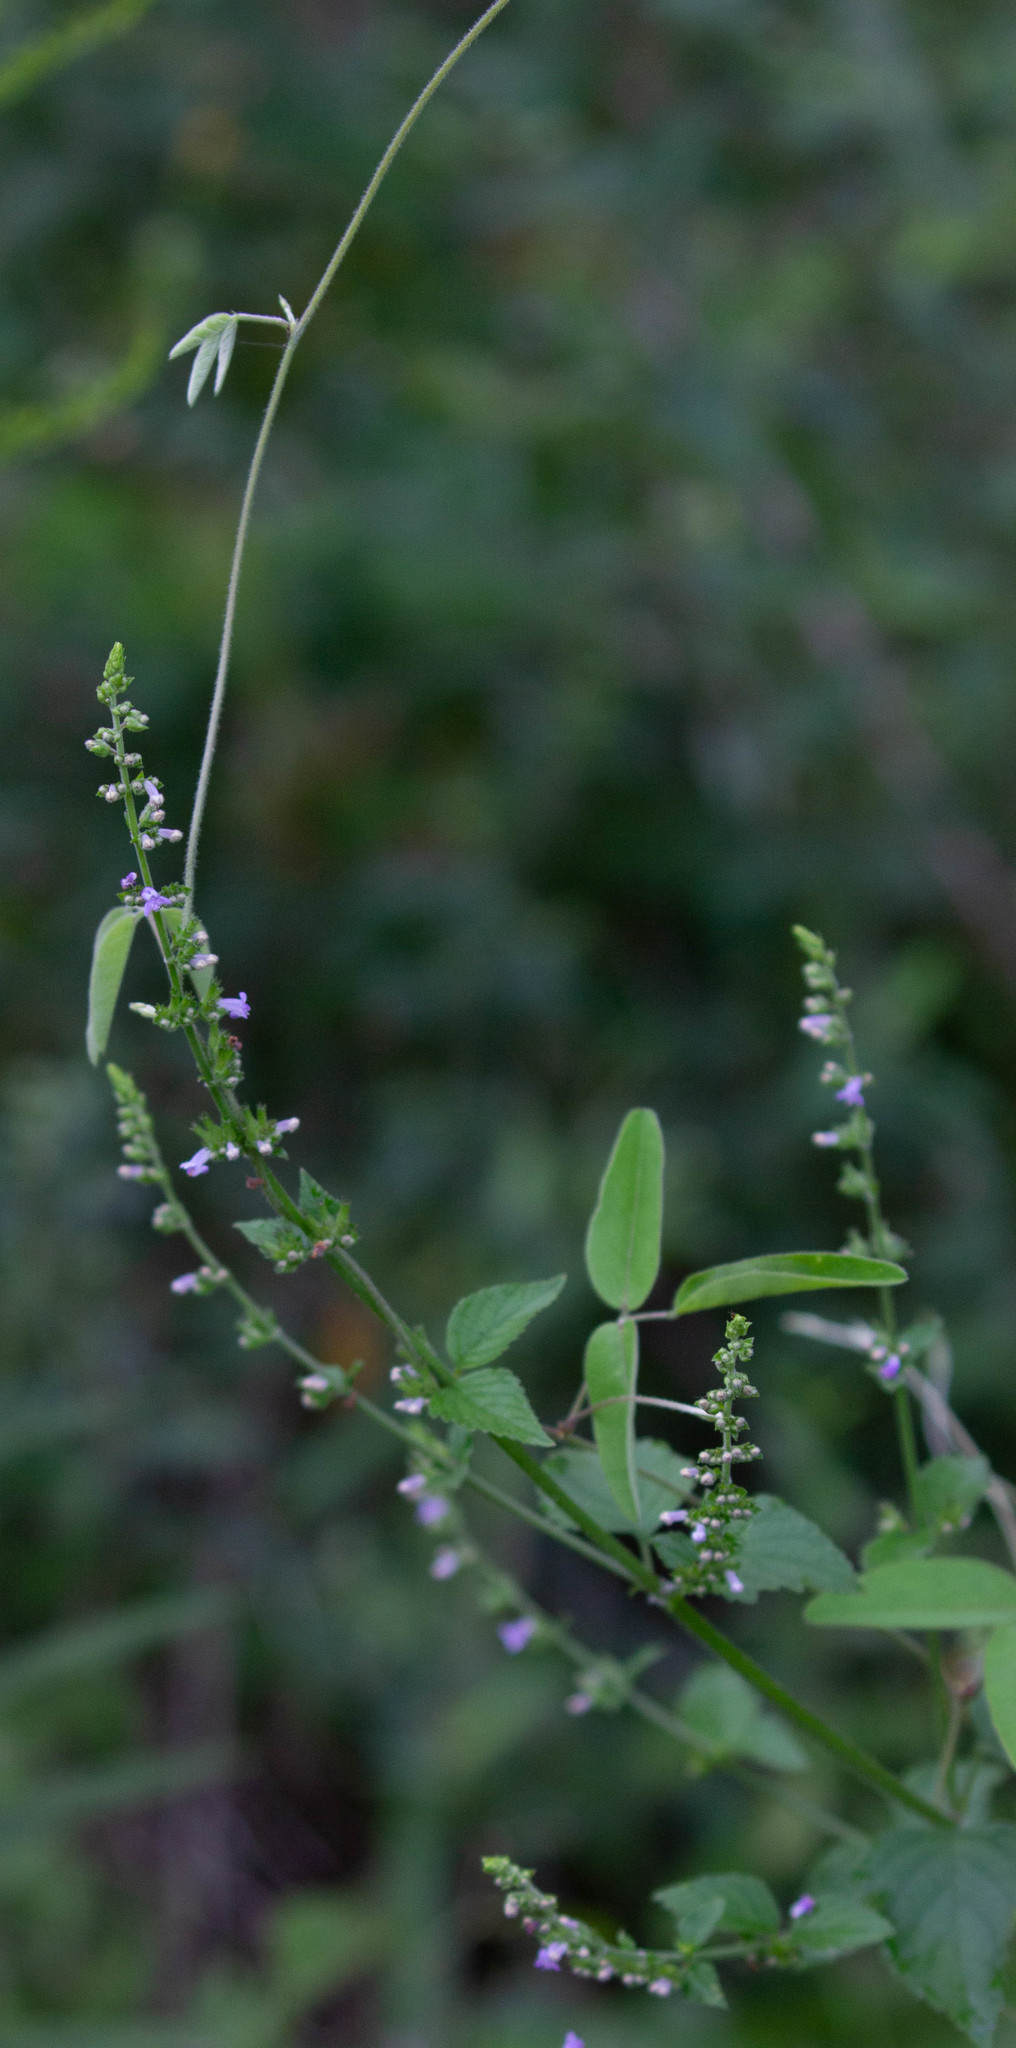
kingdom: Plantae
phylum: Tracheophyta
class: Magnoliopsida
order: Lamiales
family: Lamiaceae
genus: Cantinoa
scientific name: Cantinoa mutabilis
